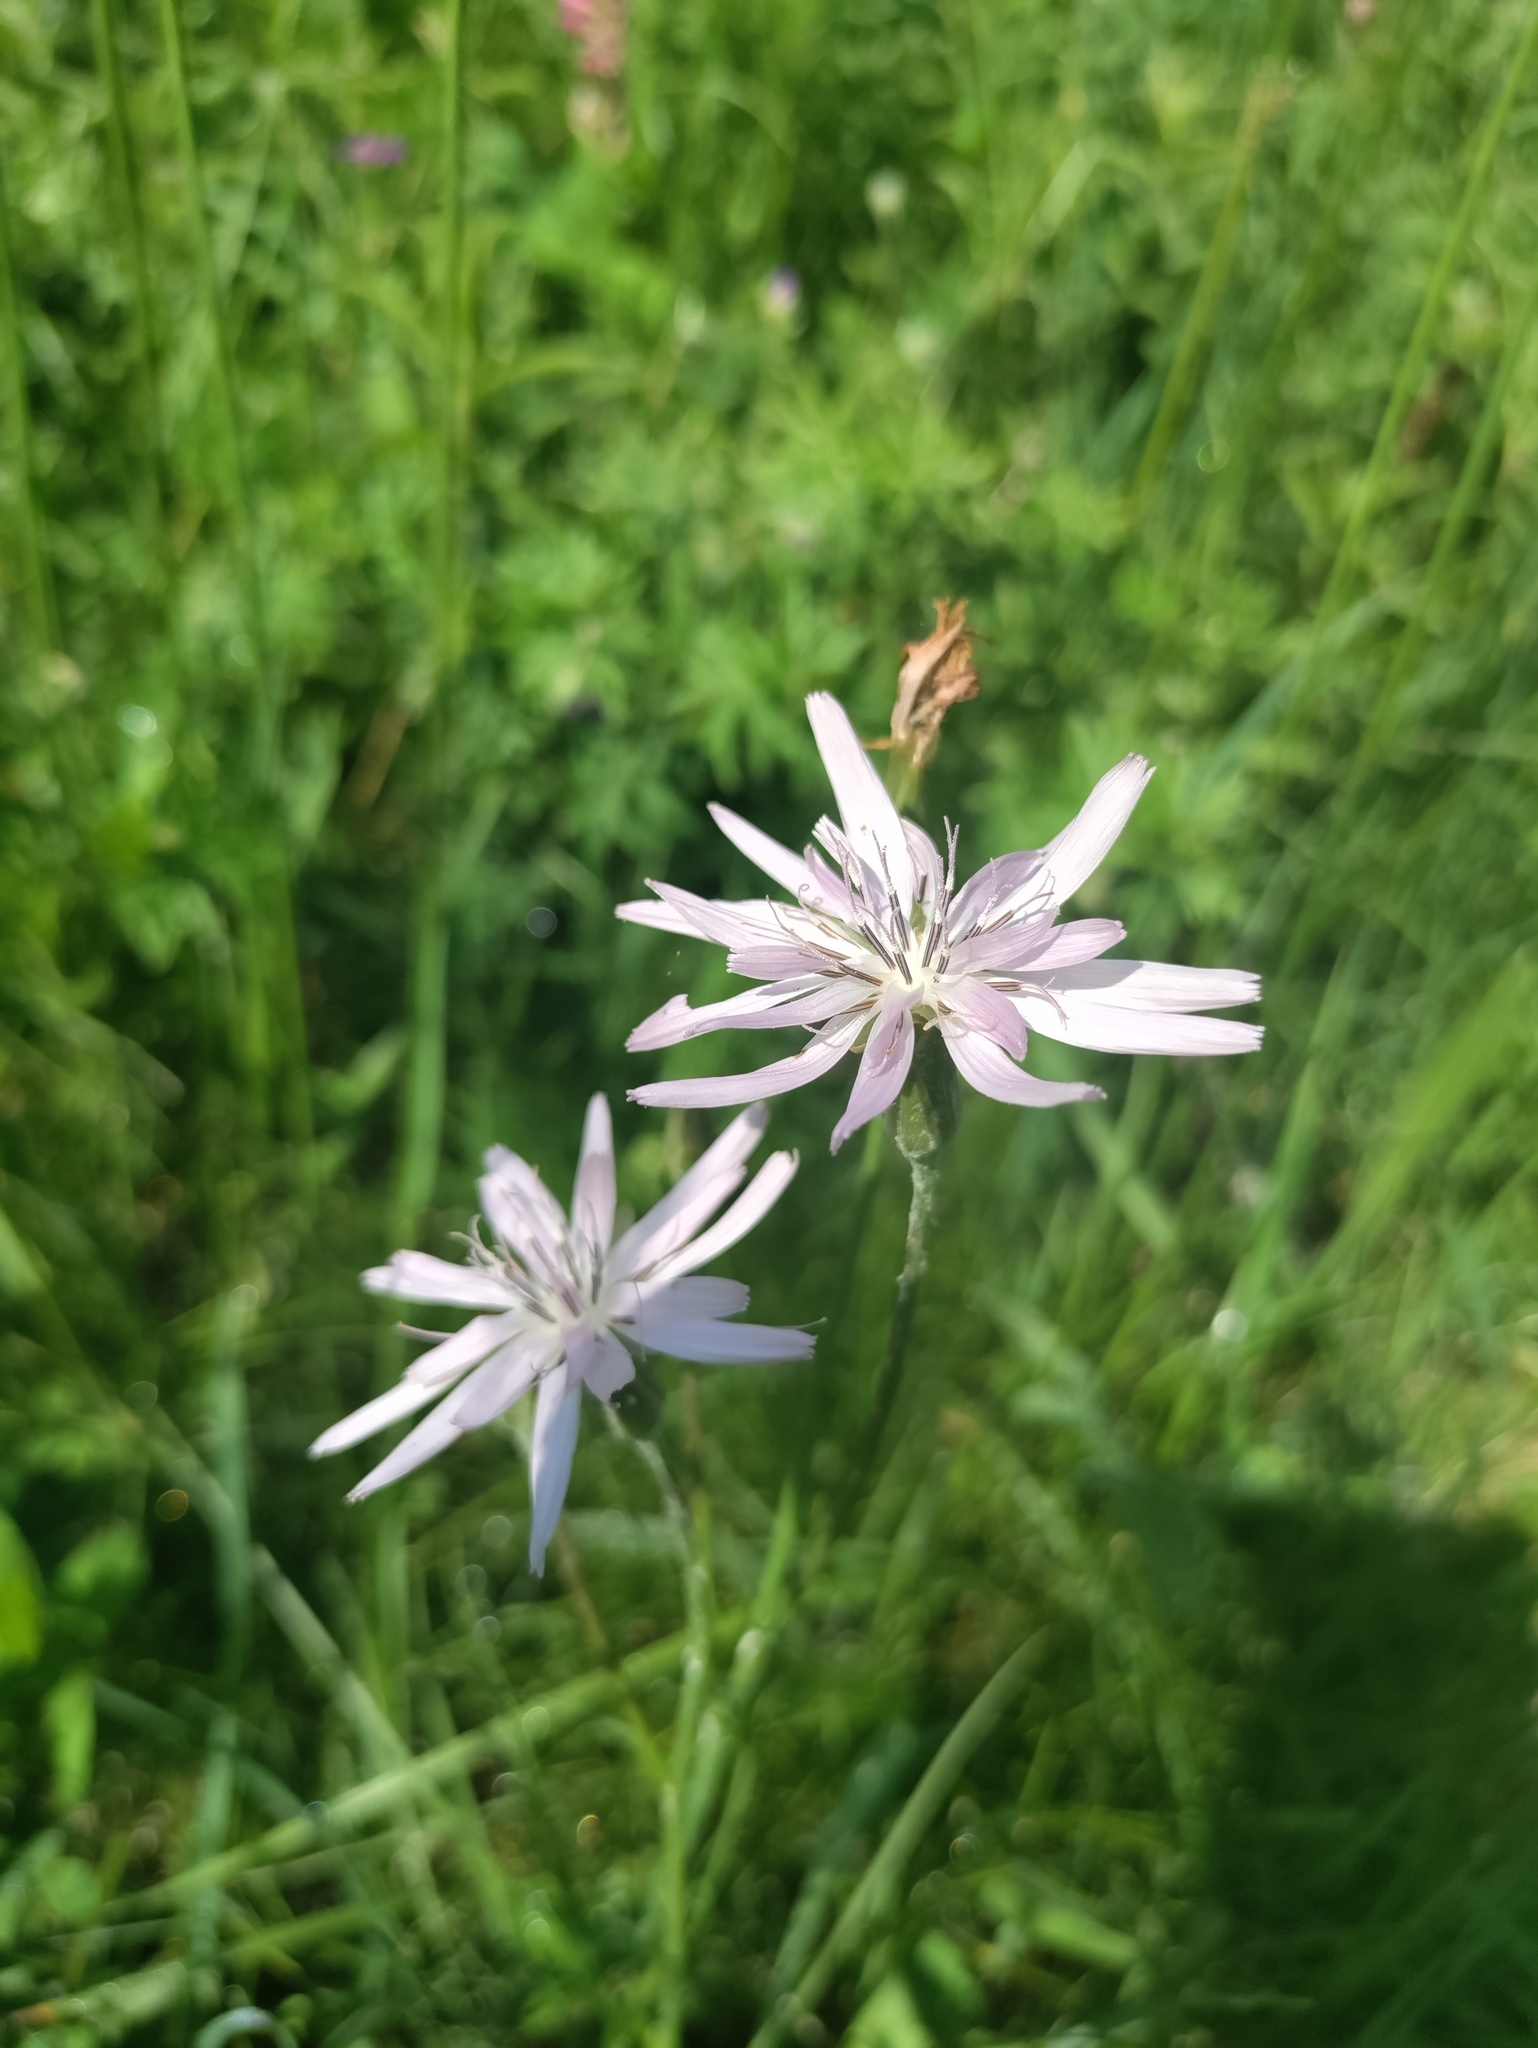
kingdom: Plantae
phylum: Tracheophyta
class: Magnoliopsida
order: Asterales
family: Asteraceae
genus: Scorzonera
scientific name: Scorzonera purpurea
